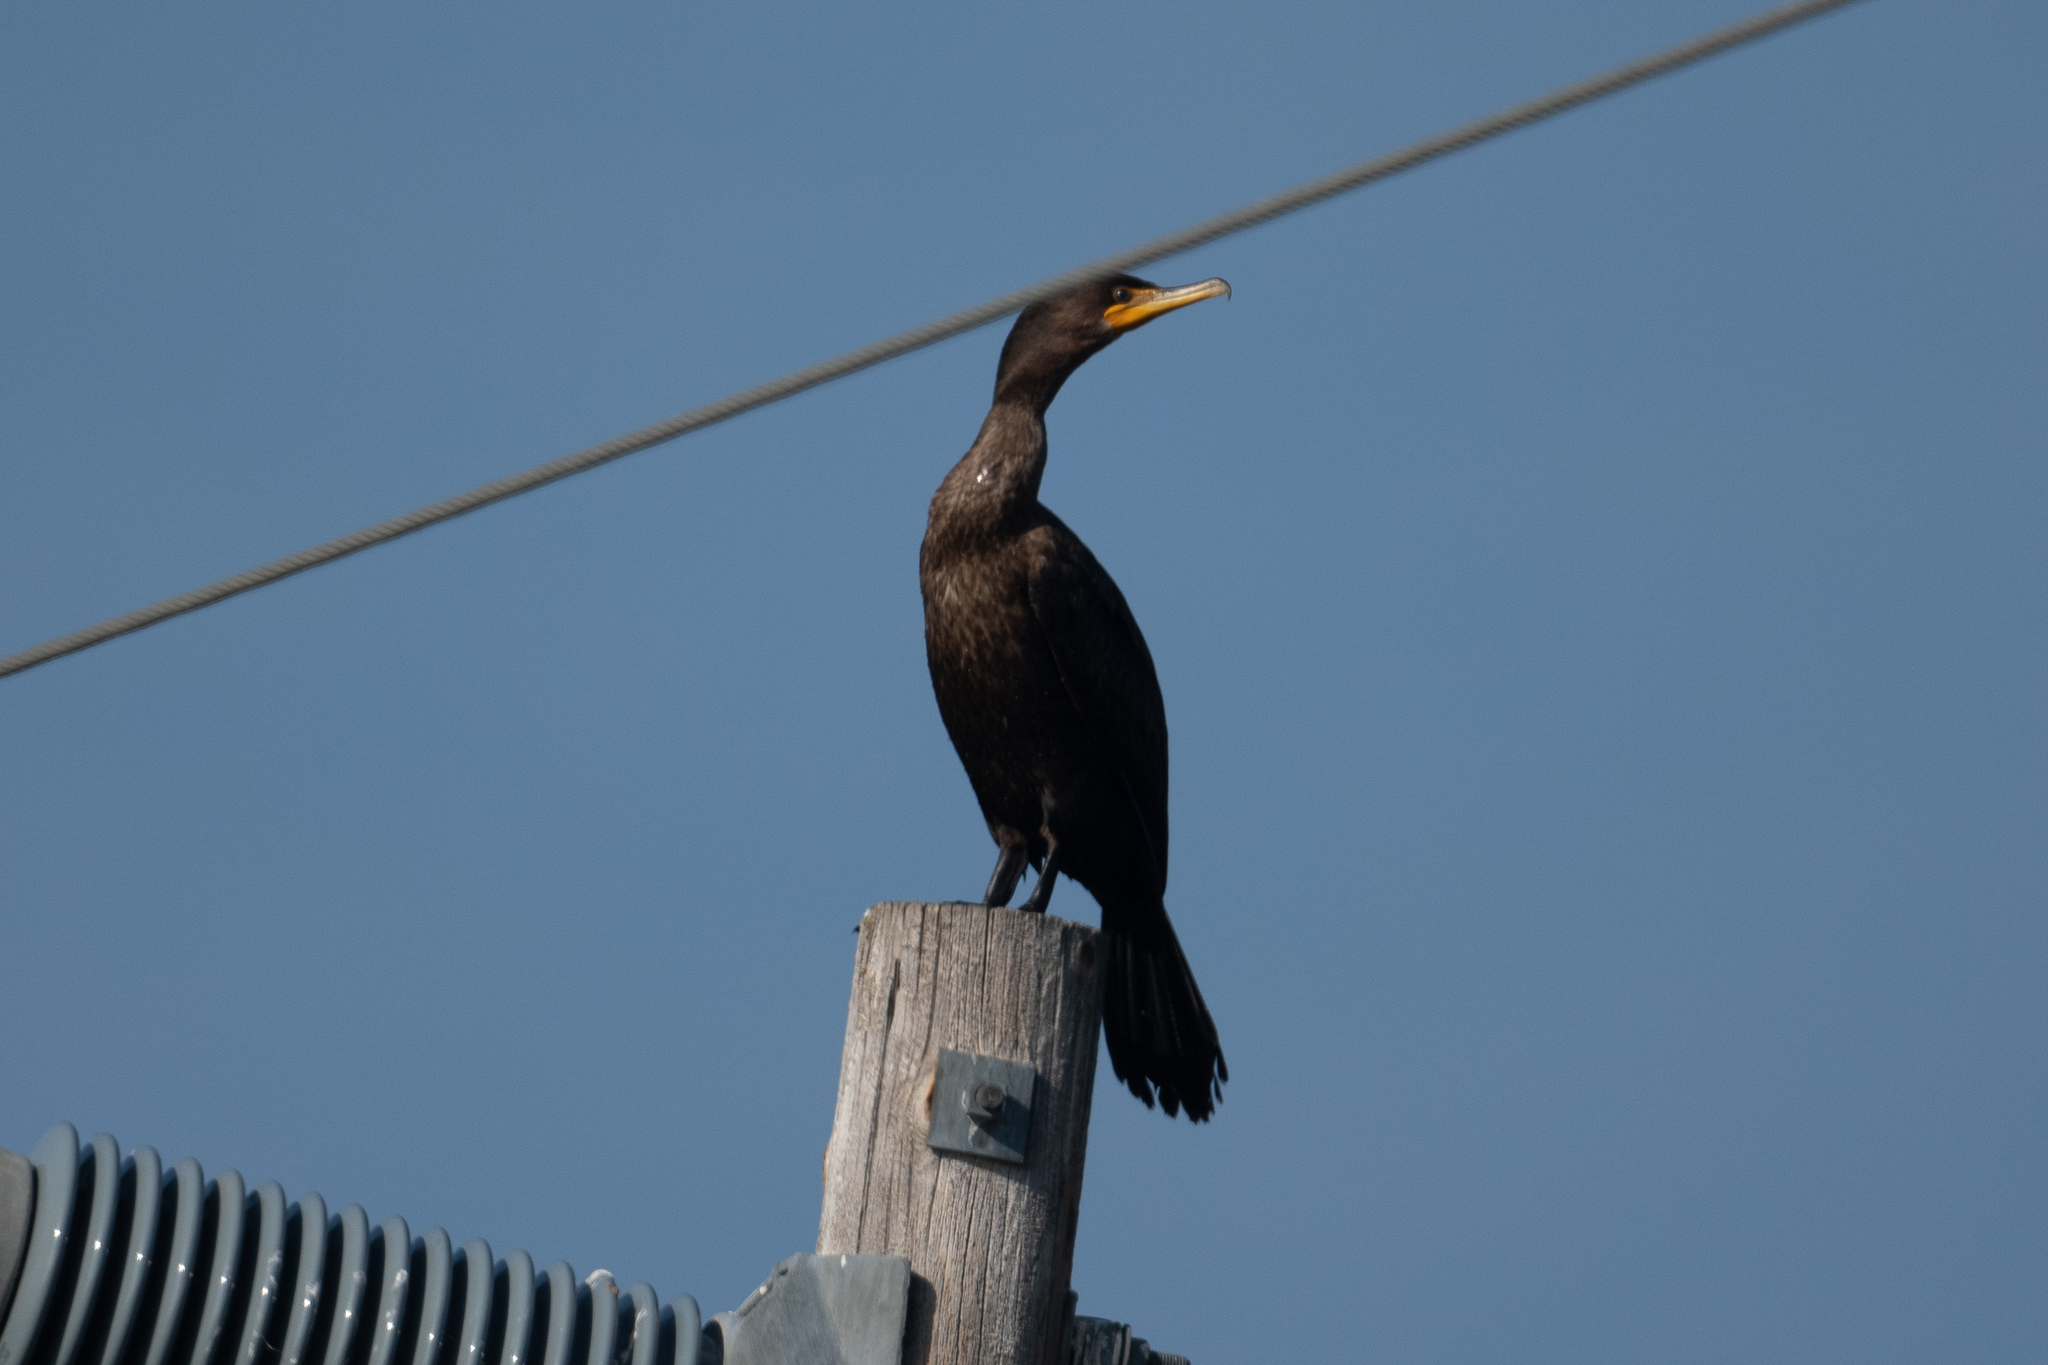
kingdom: Animalia
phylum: Chordata
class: Aves
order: Suliformes
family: Phalacrocoracidae
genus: Phalacrocorax
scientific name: Phalacrocorax auritus
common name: Double-crested cormorant
